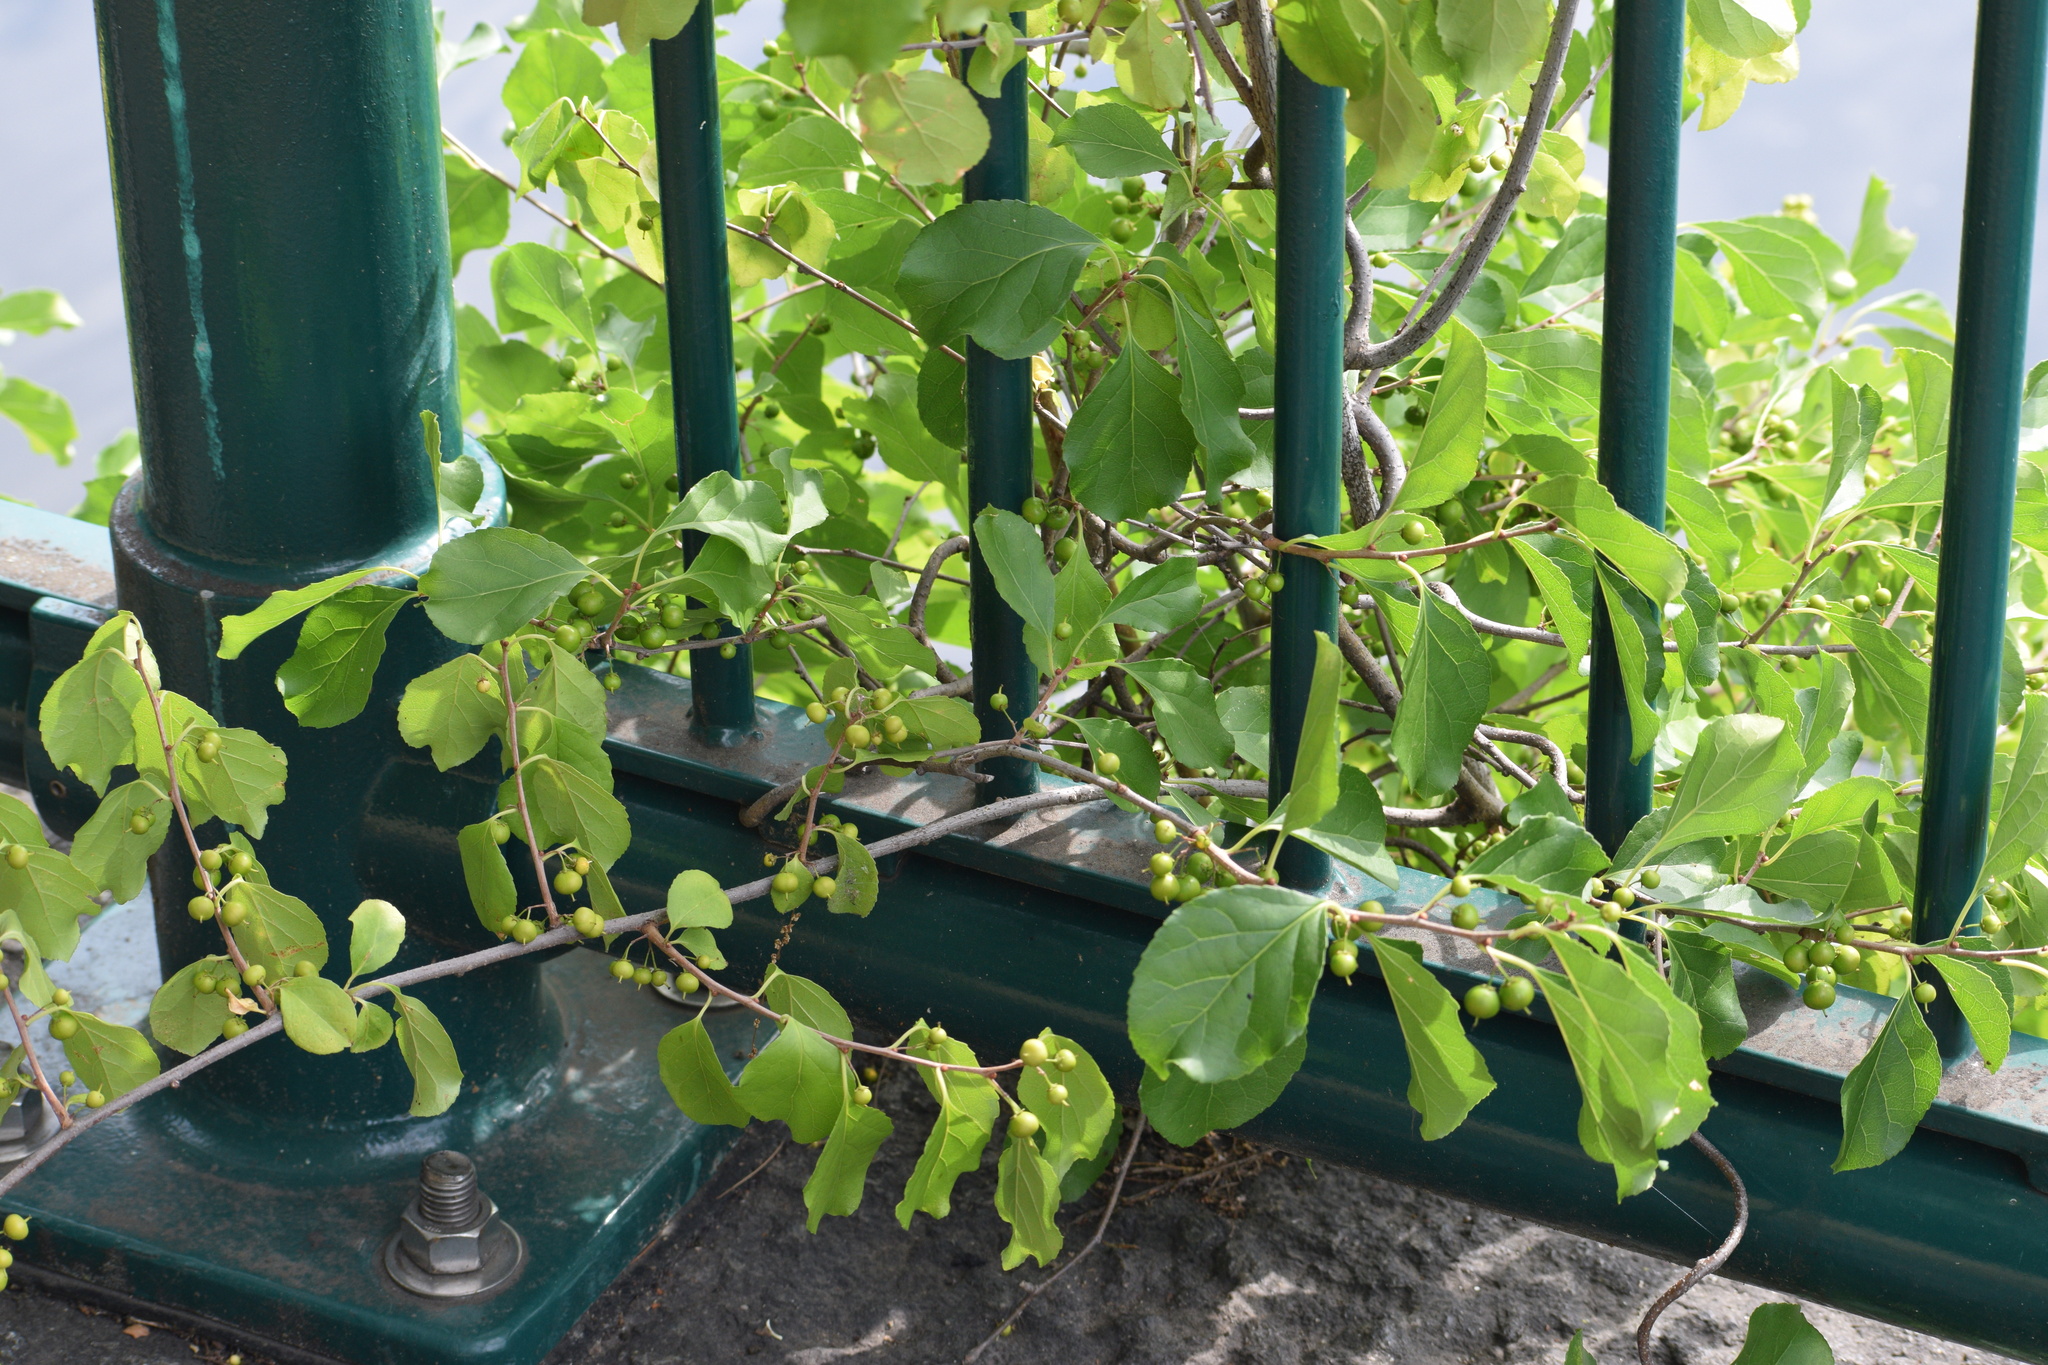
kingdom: Plantae
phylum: Tracheophyta
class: Magnoliopsida
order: Celastrales
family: Celastraceae
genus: Celastrus
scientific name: Celastrus orbiculatus
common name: Oriental bittersweet
